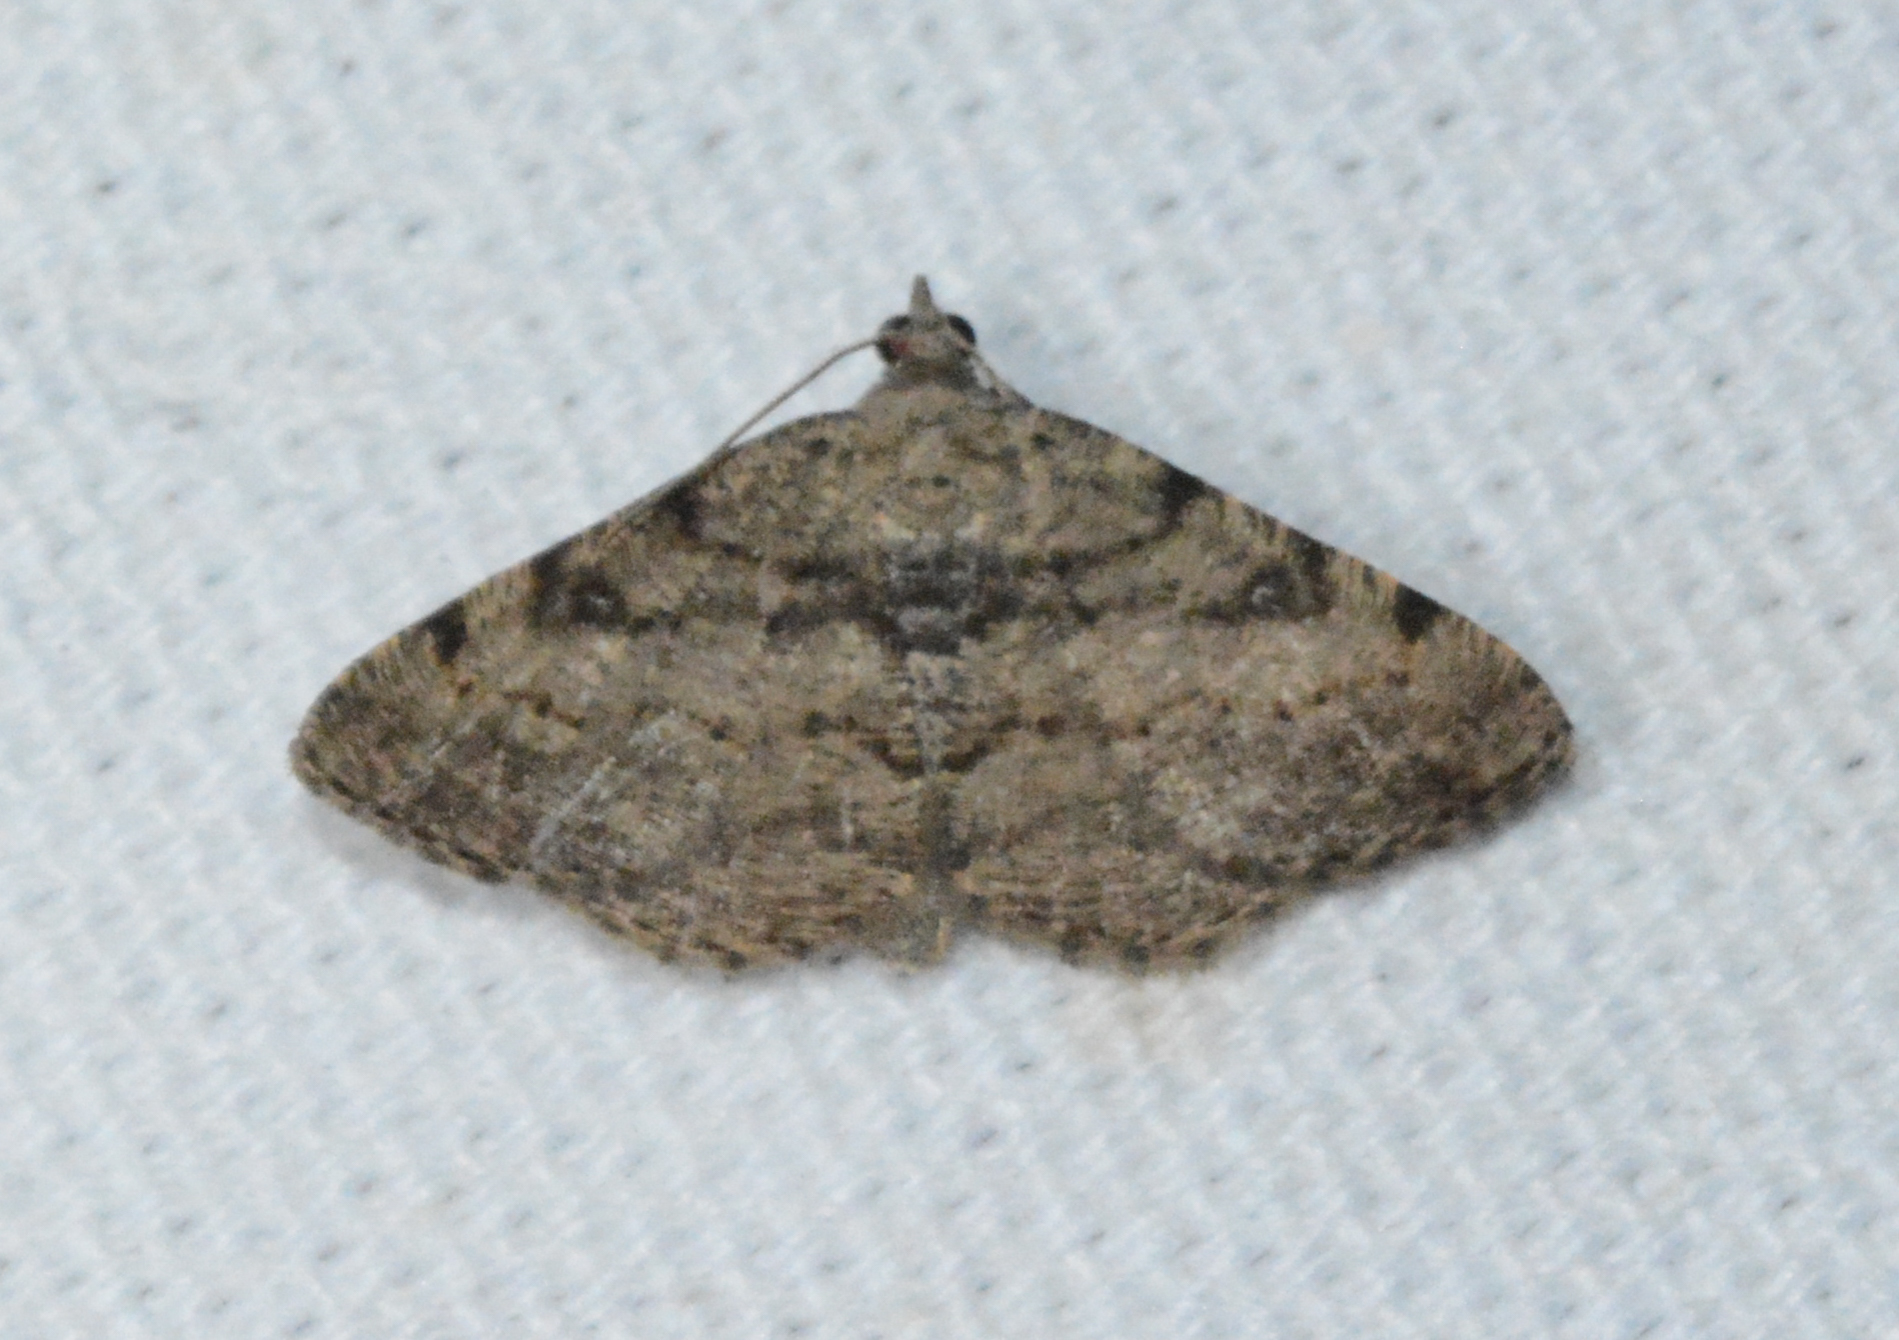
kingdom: Animalia
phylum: Arthropoda
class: Insecta
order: Lepidoptera
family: Geometridae
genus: Digrammia
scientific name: Digrammia gnophosaria
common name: Hollow-spotted angle
